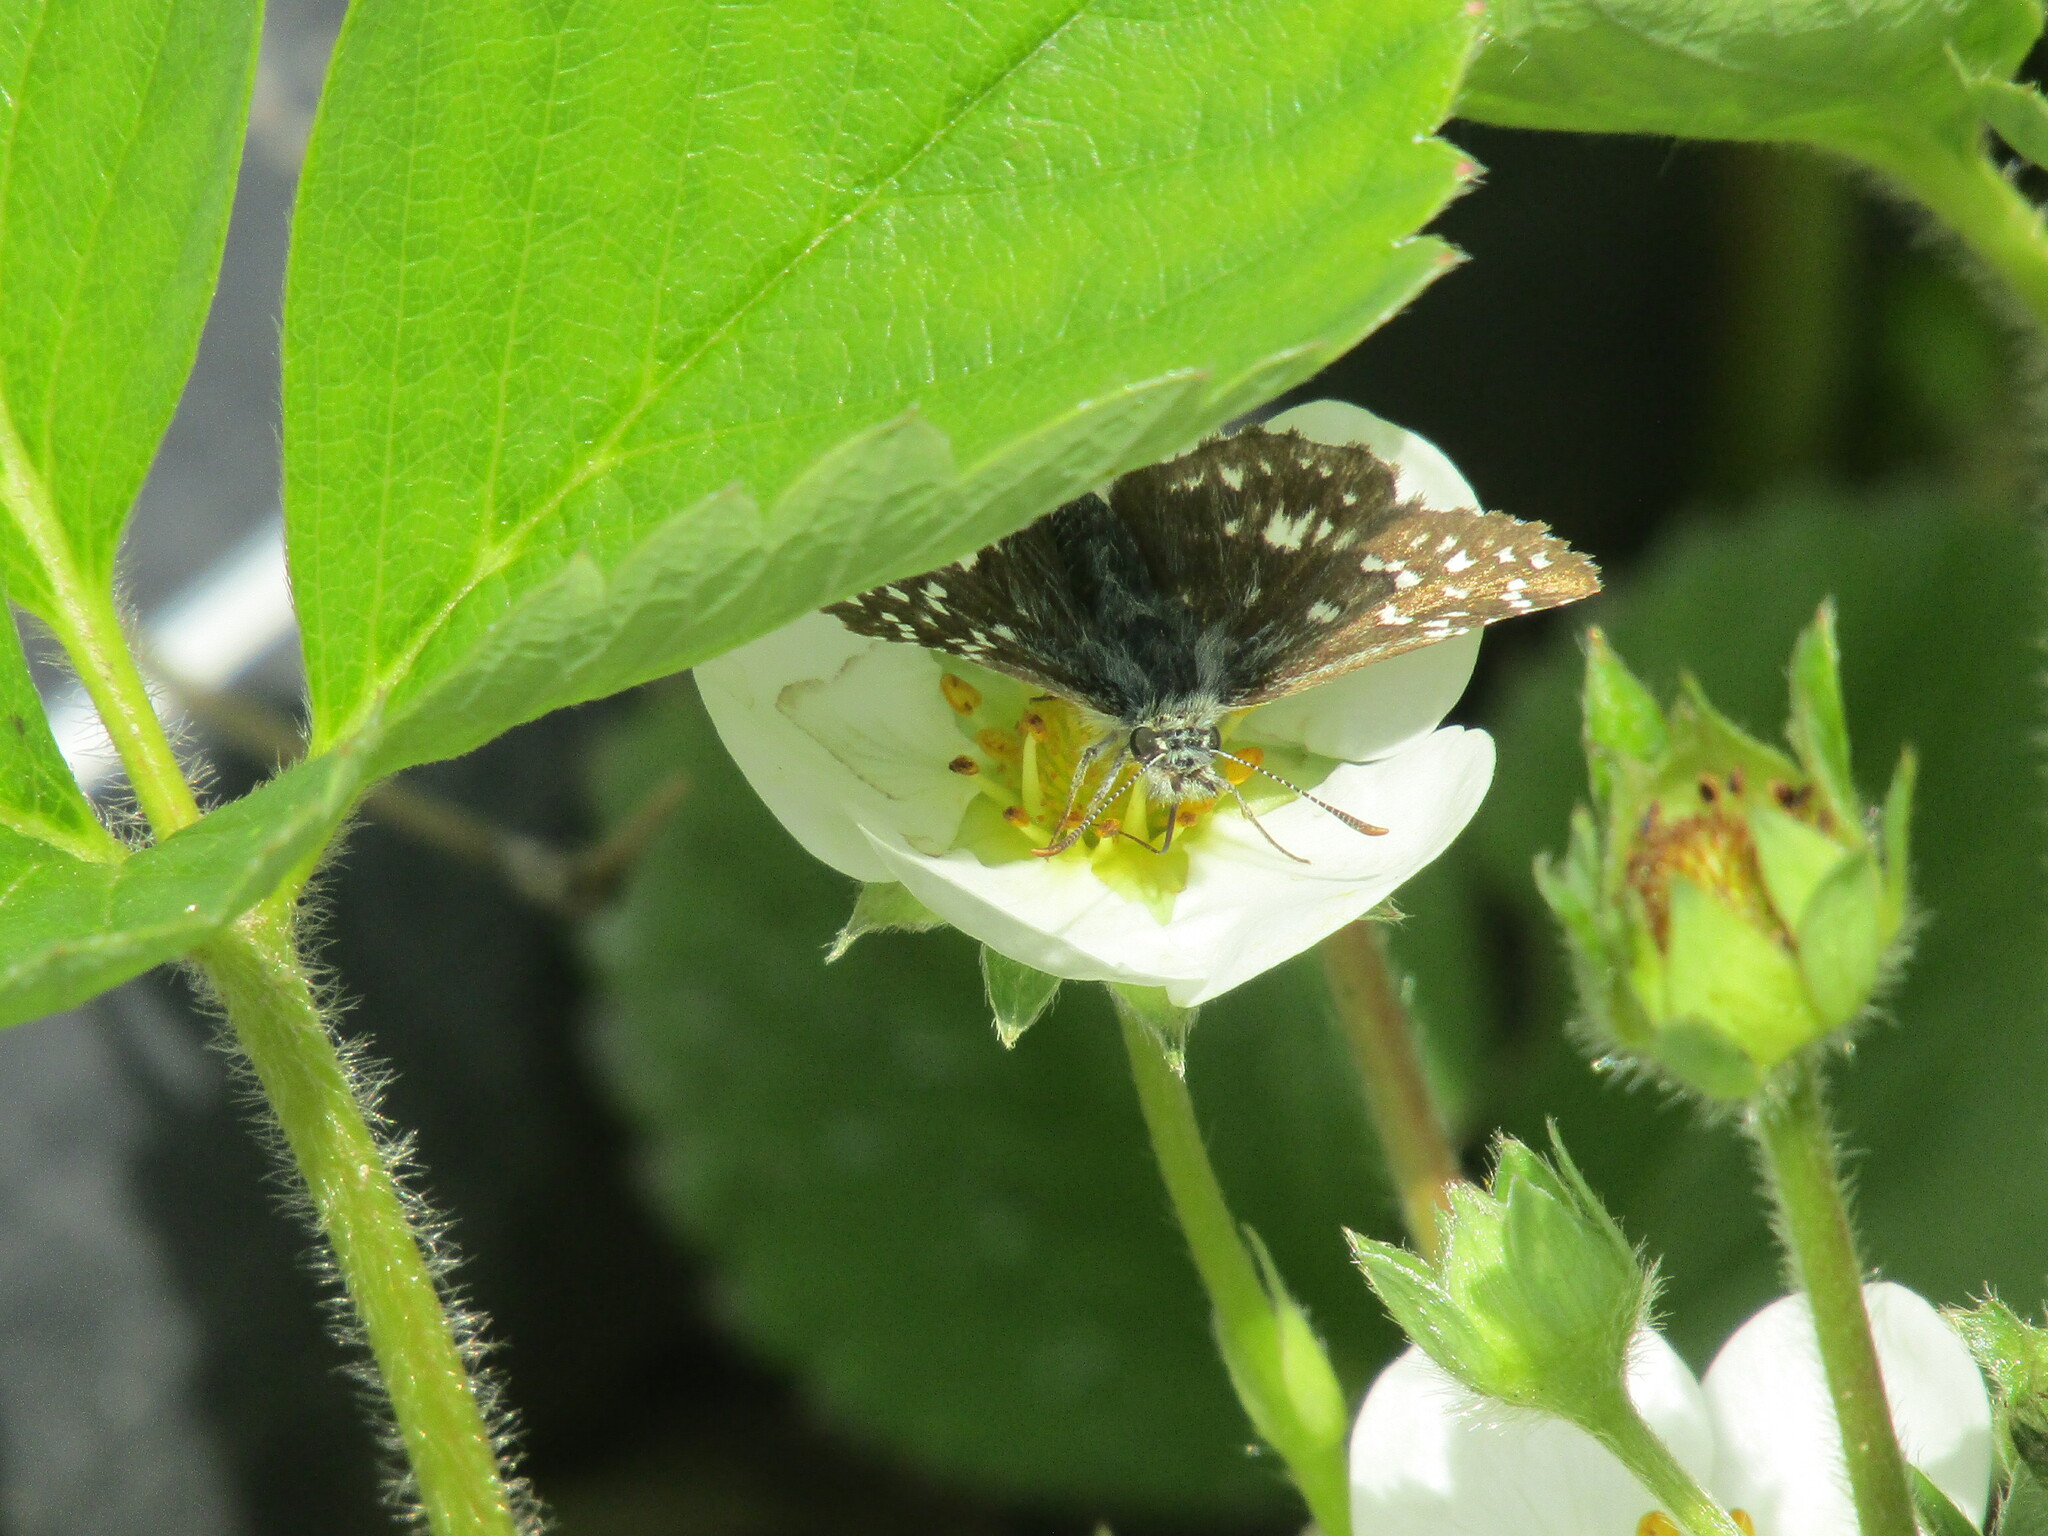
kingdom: Animalia
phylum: Arthropoda
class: Insecta
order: Lepidoptera
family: Hesperiidae
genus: Pyrgus
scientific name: Pyrgus malvae
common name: Grizzled skipper
